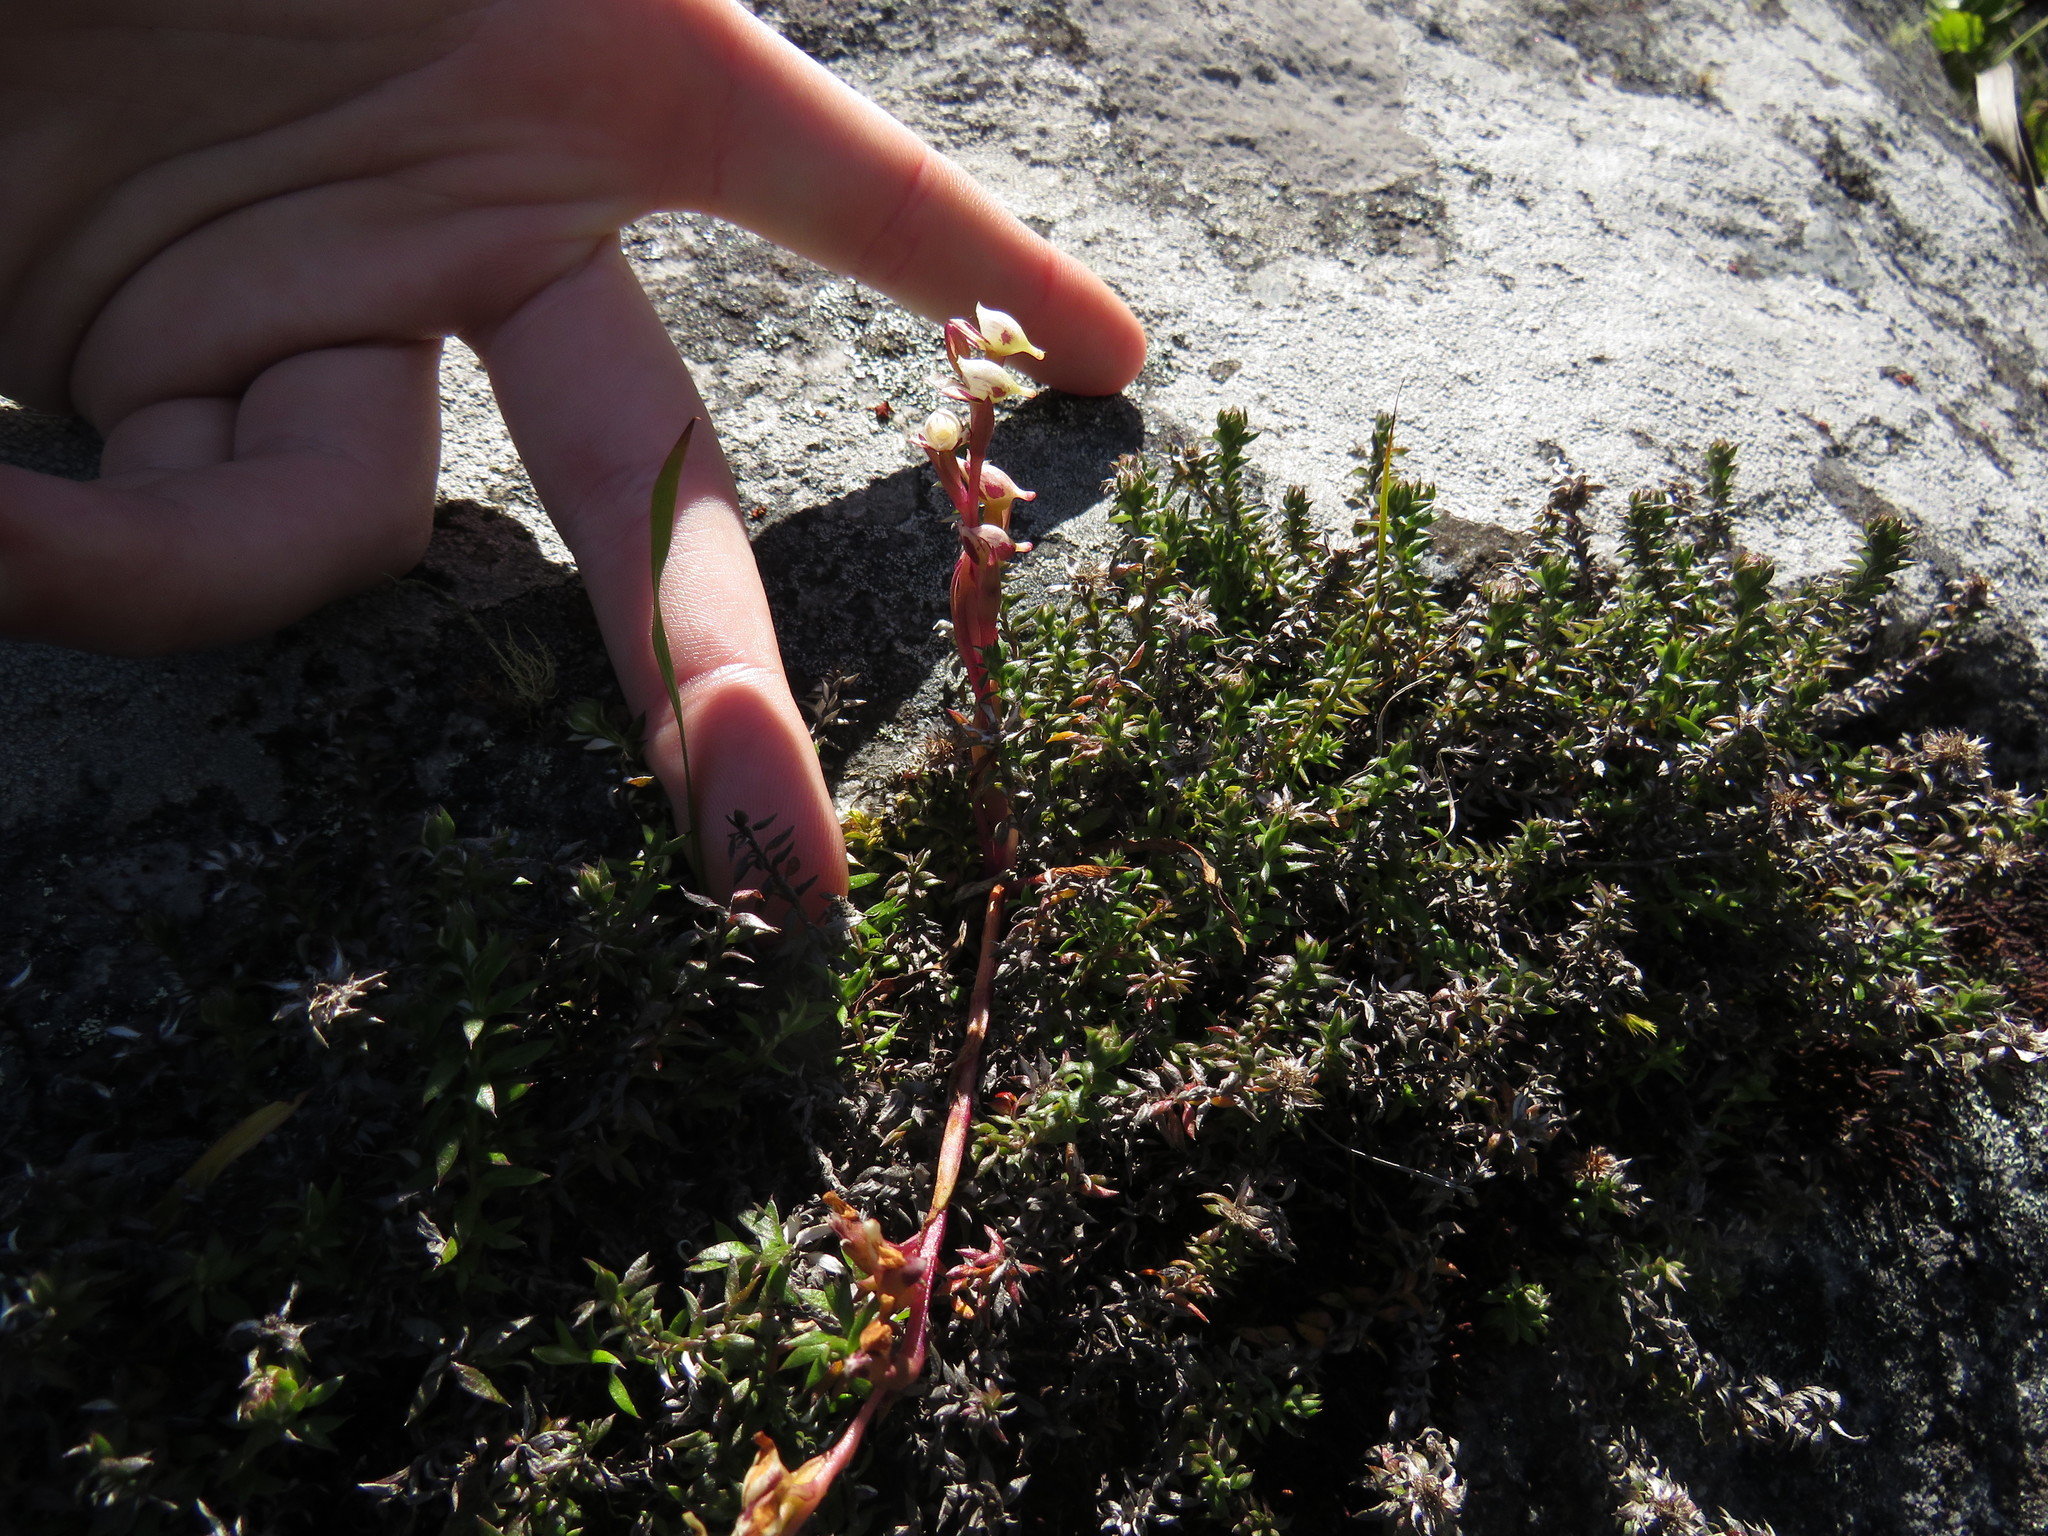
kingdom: Plantae
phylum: Tracheophyta
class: Liliopsida
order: Asparagales
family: Orchidaceae
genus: Disa
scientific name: Disa ocellata
